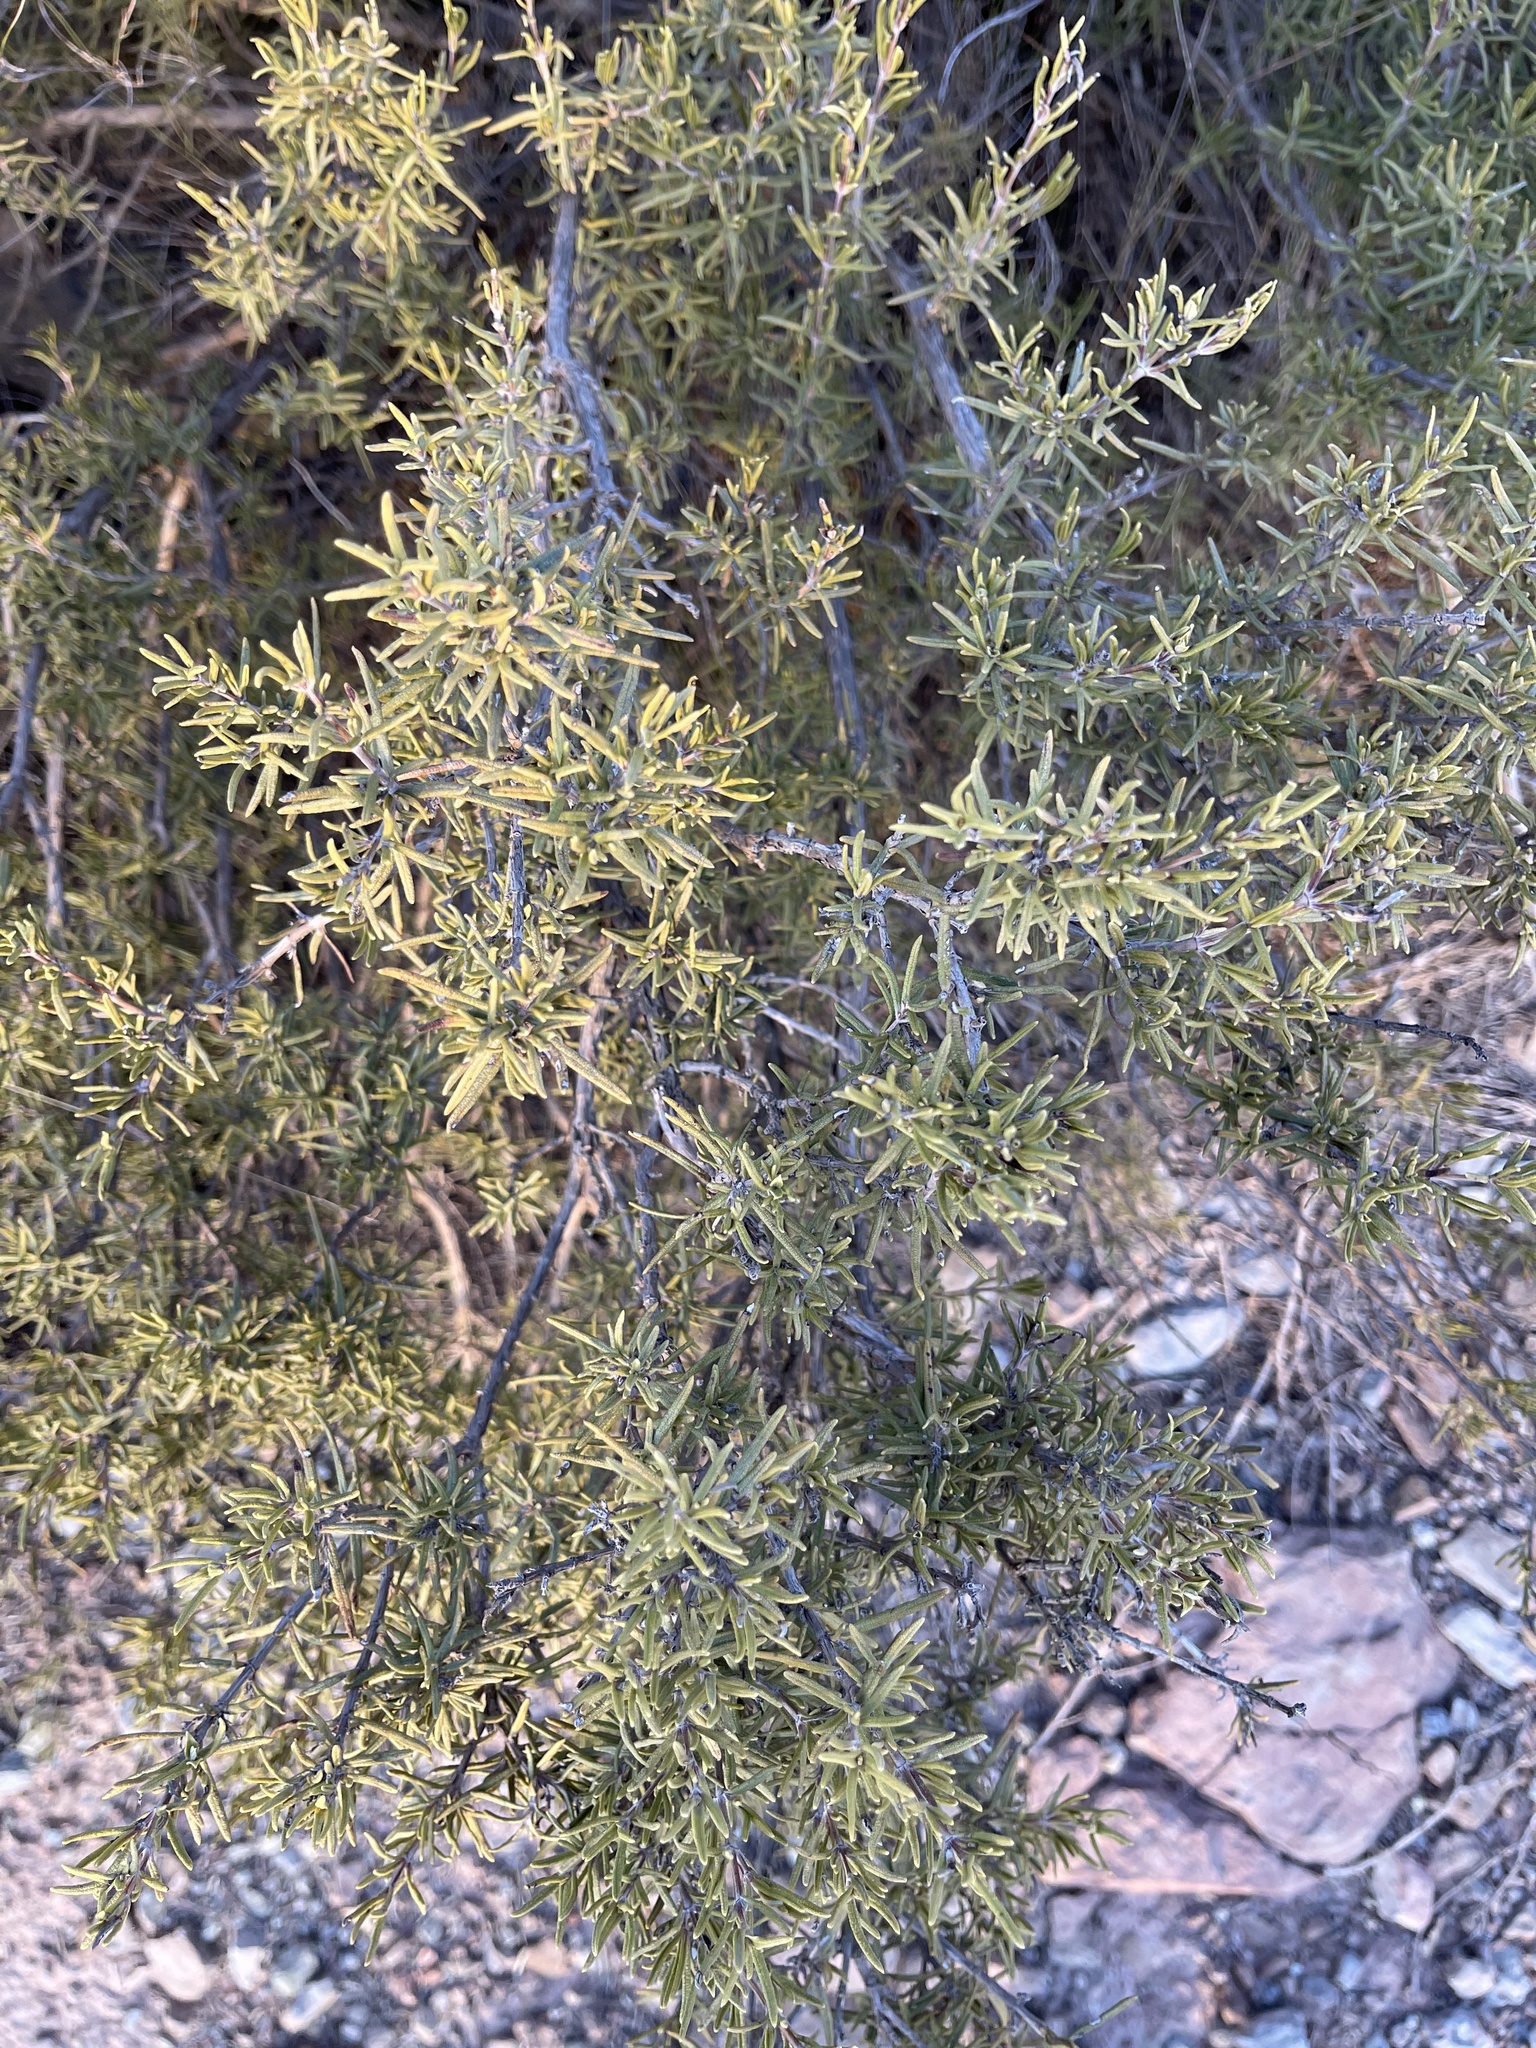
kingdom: Plantae
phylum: Tracheophyta
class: Magnoliopsida
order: Lamiales
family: Lamiaceae
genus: Salvia
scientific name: Salvia rosmarinus
